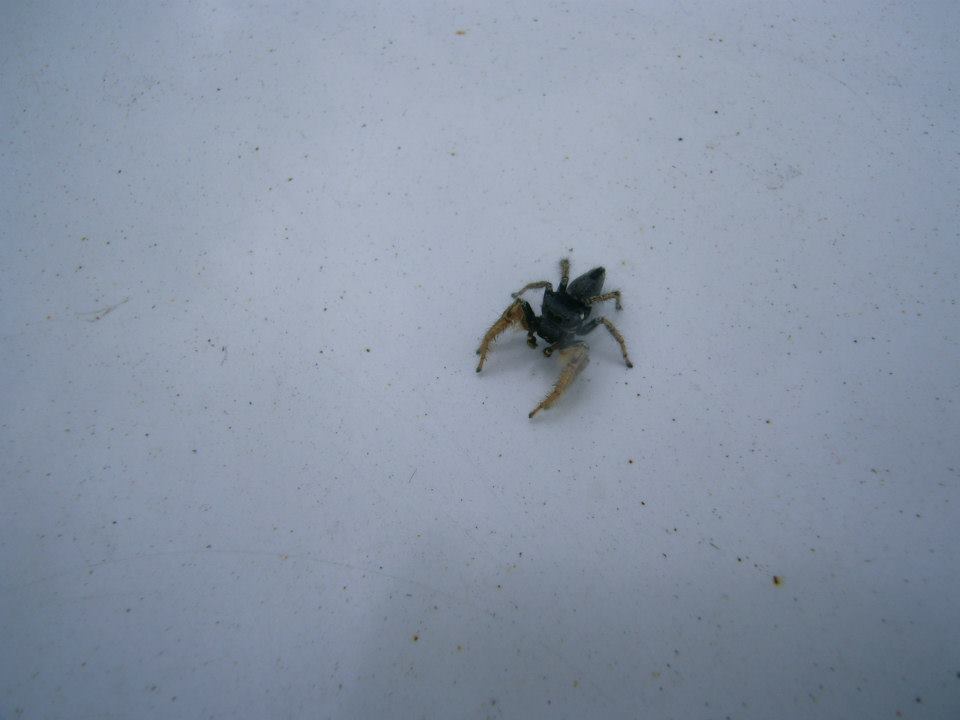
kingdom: Animalia
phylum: Arthropoda
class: Arachnida
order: Araneae
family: Salticidae
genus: Phidippus
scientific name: Phidippus arizonensis
